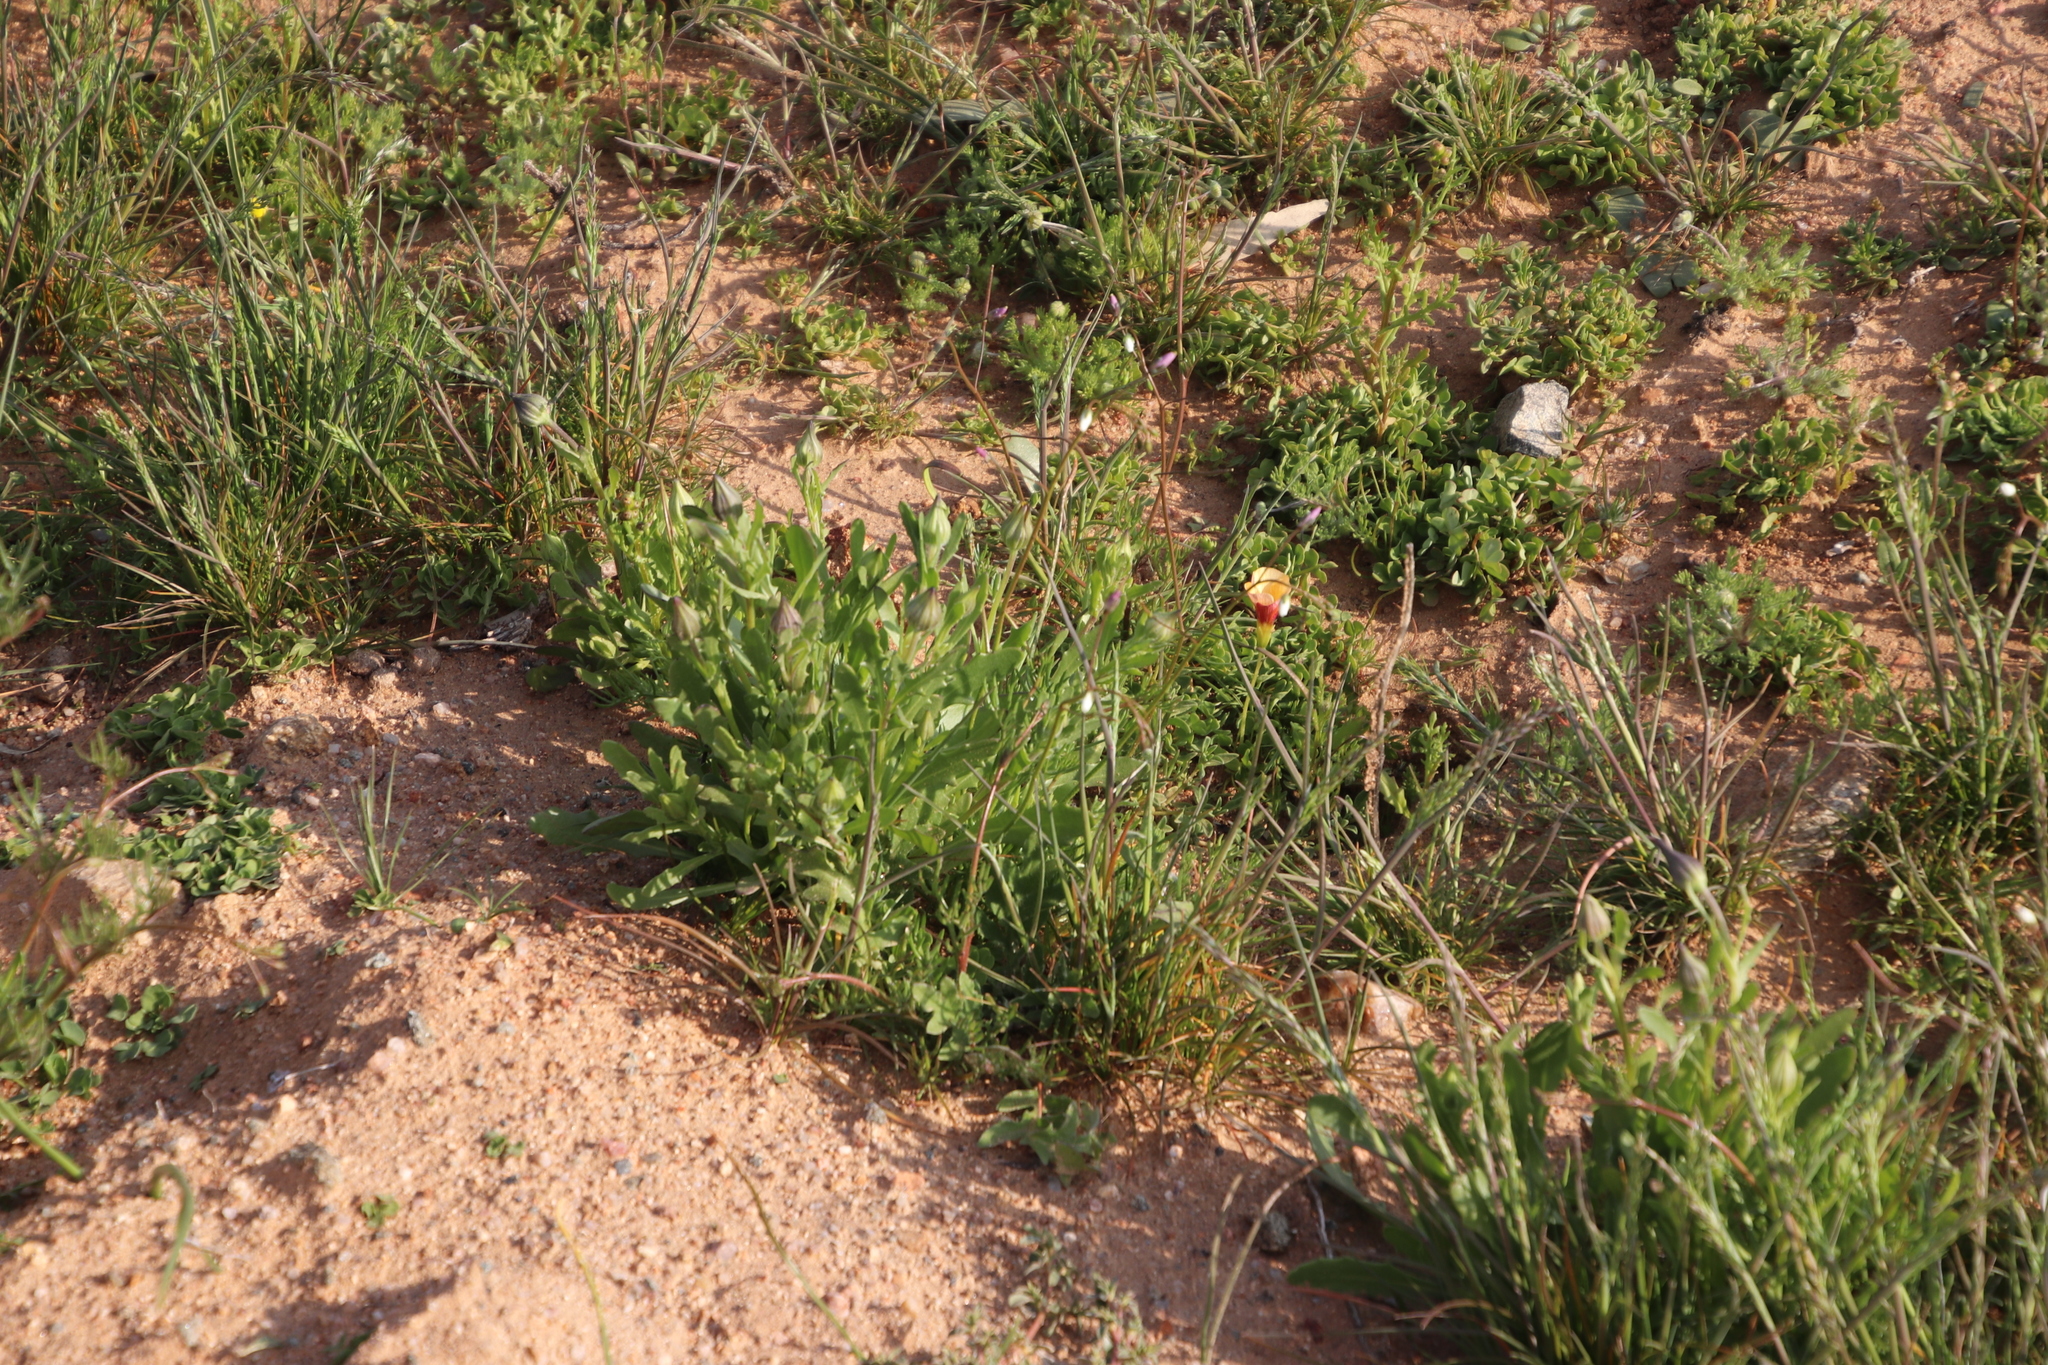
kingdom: Plantae
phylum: Tracheophyta
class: Magnoliopsida
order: Brassicales
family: Brassicaceae
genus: Heliophila
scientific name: Heliophila seselifolia
